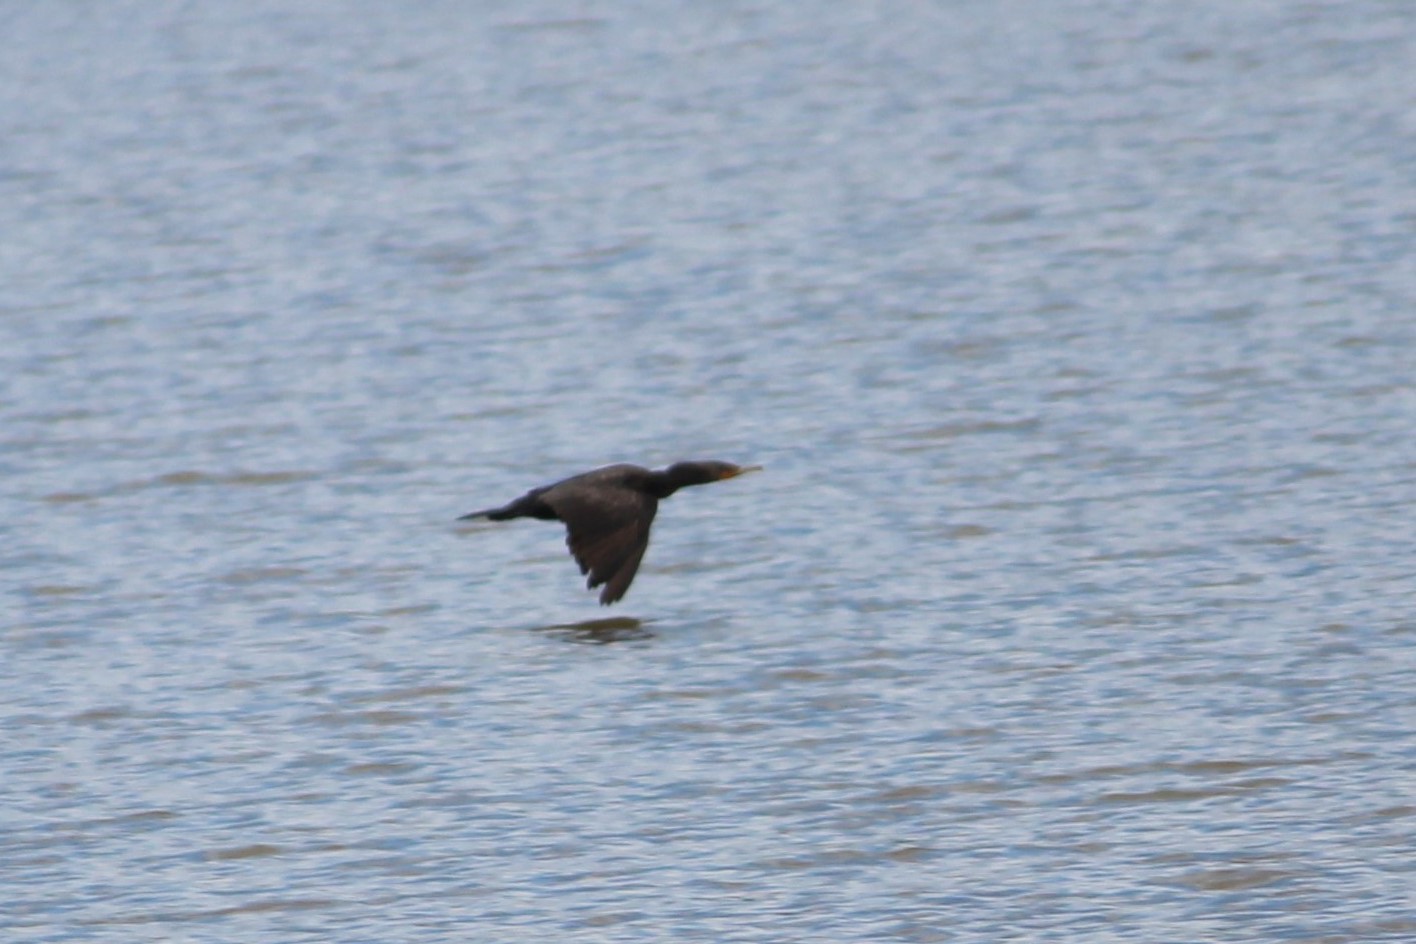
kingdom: Animalia
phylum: Chordata
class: Aves
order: Suliformes
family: Phalacrocoracidae
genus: Phalacrocorax
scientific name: Phalacrocorax auritus
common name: Double-crested cormorant
